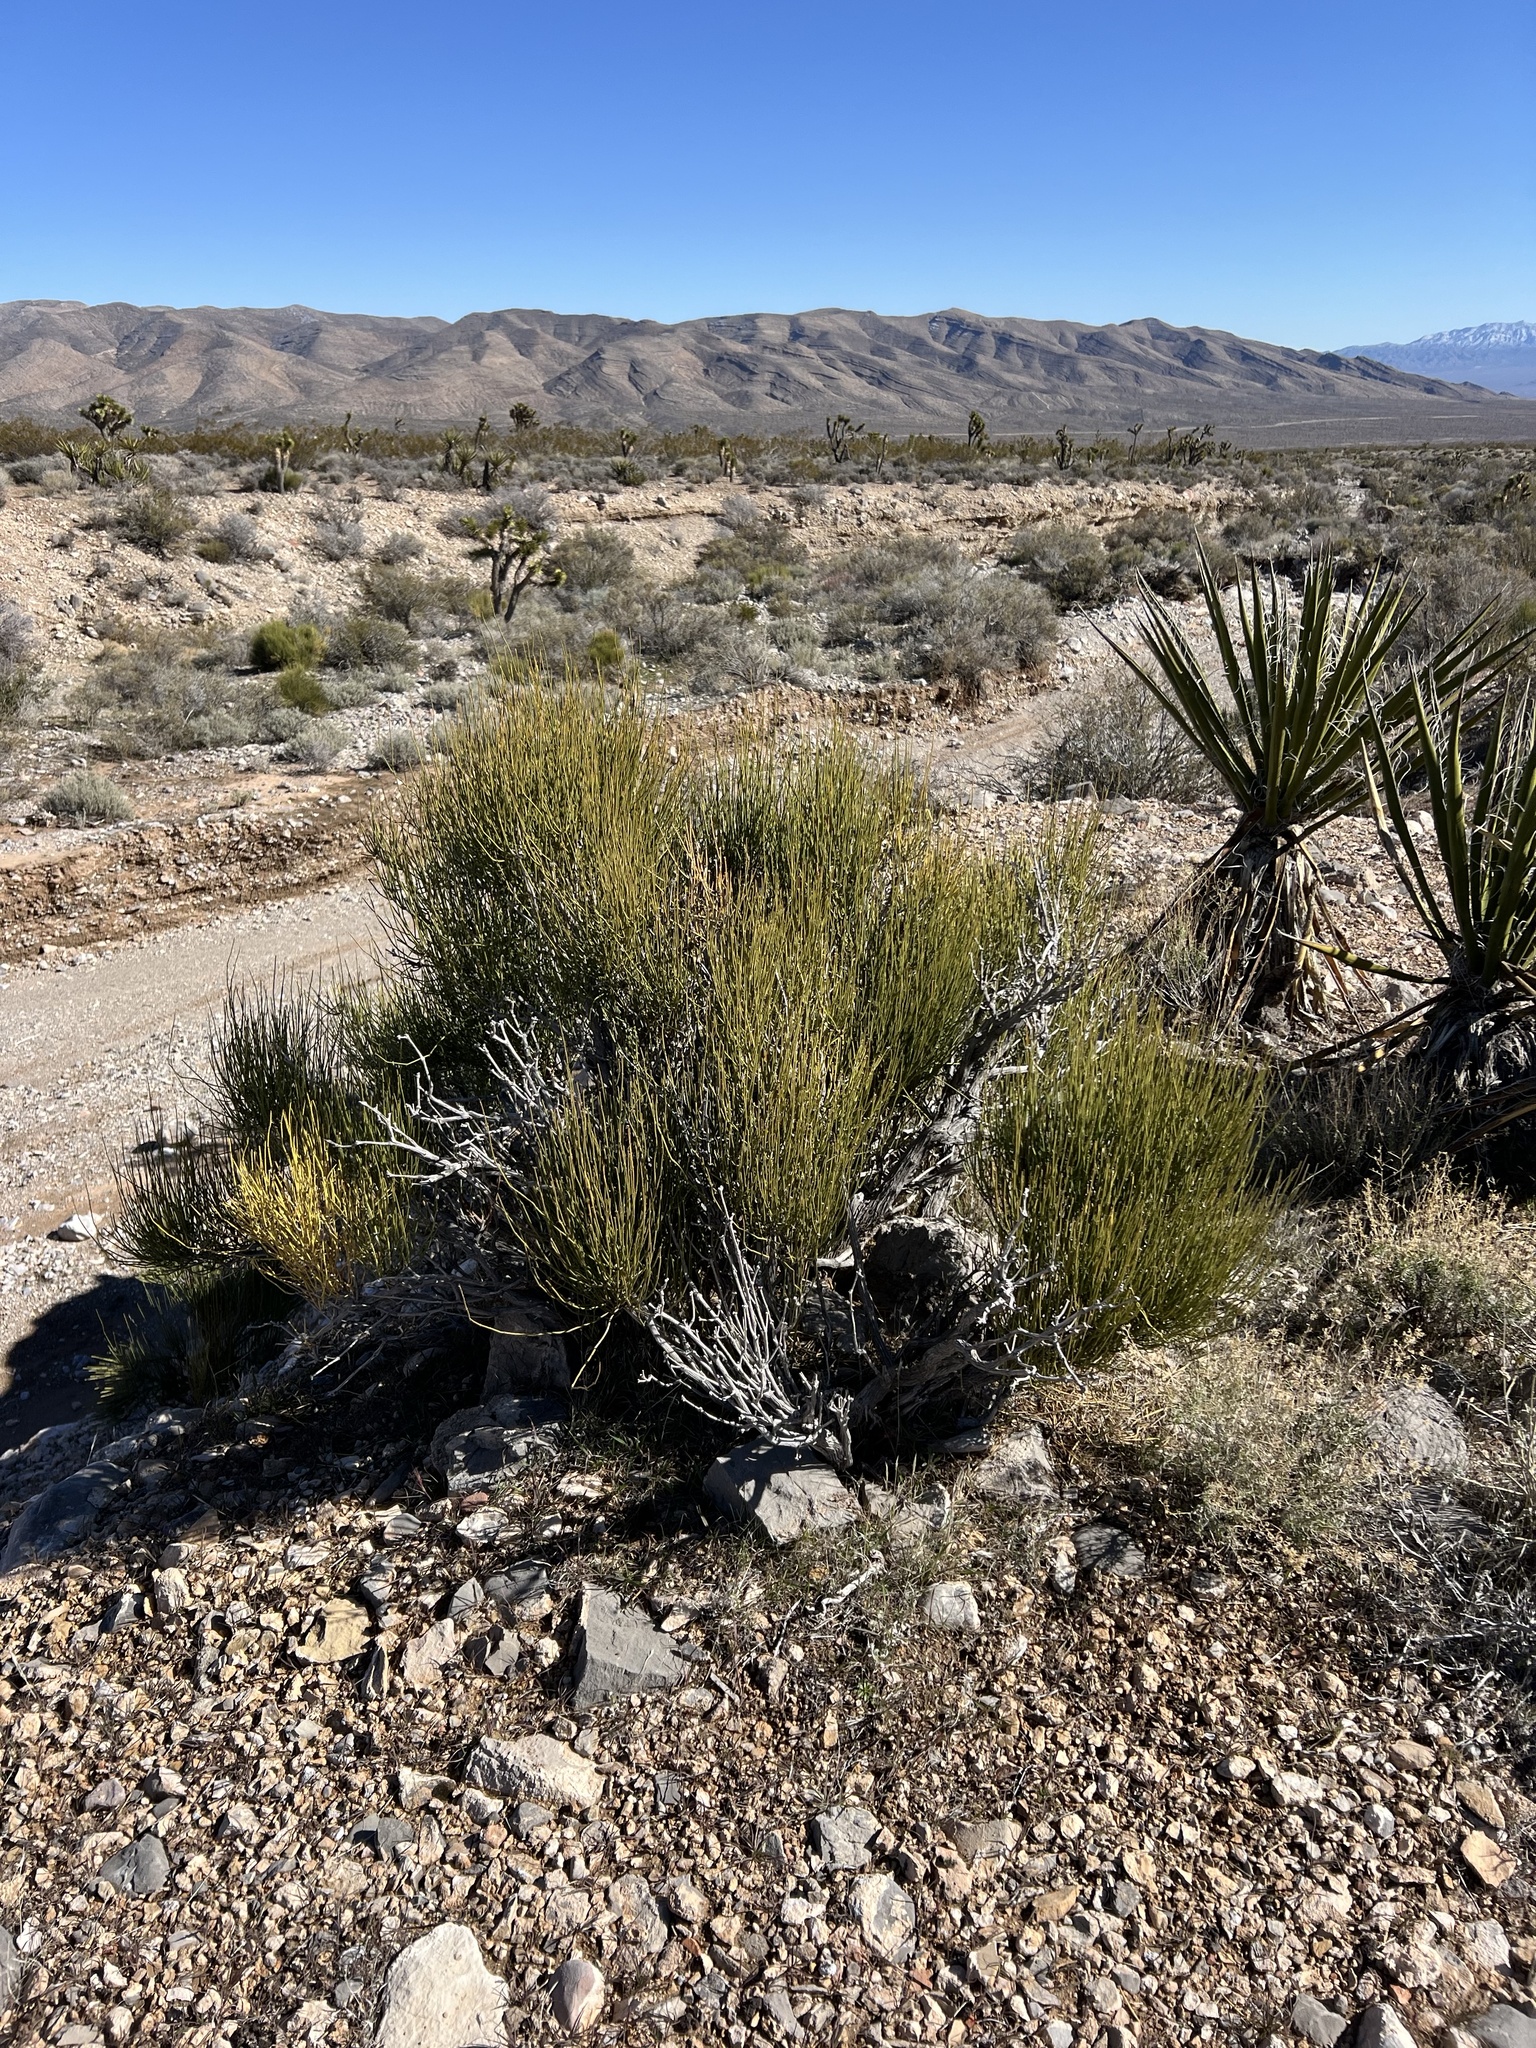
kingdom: Plantae
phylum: Tracheophyta
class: Gnetopsida
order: Ephedrales
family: Ephedraceae
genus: Ephedra
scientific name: Ephedra viridis
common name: Green ephedra
